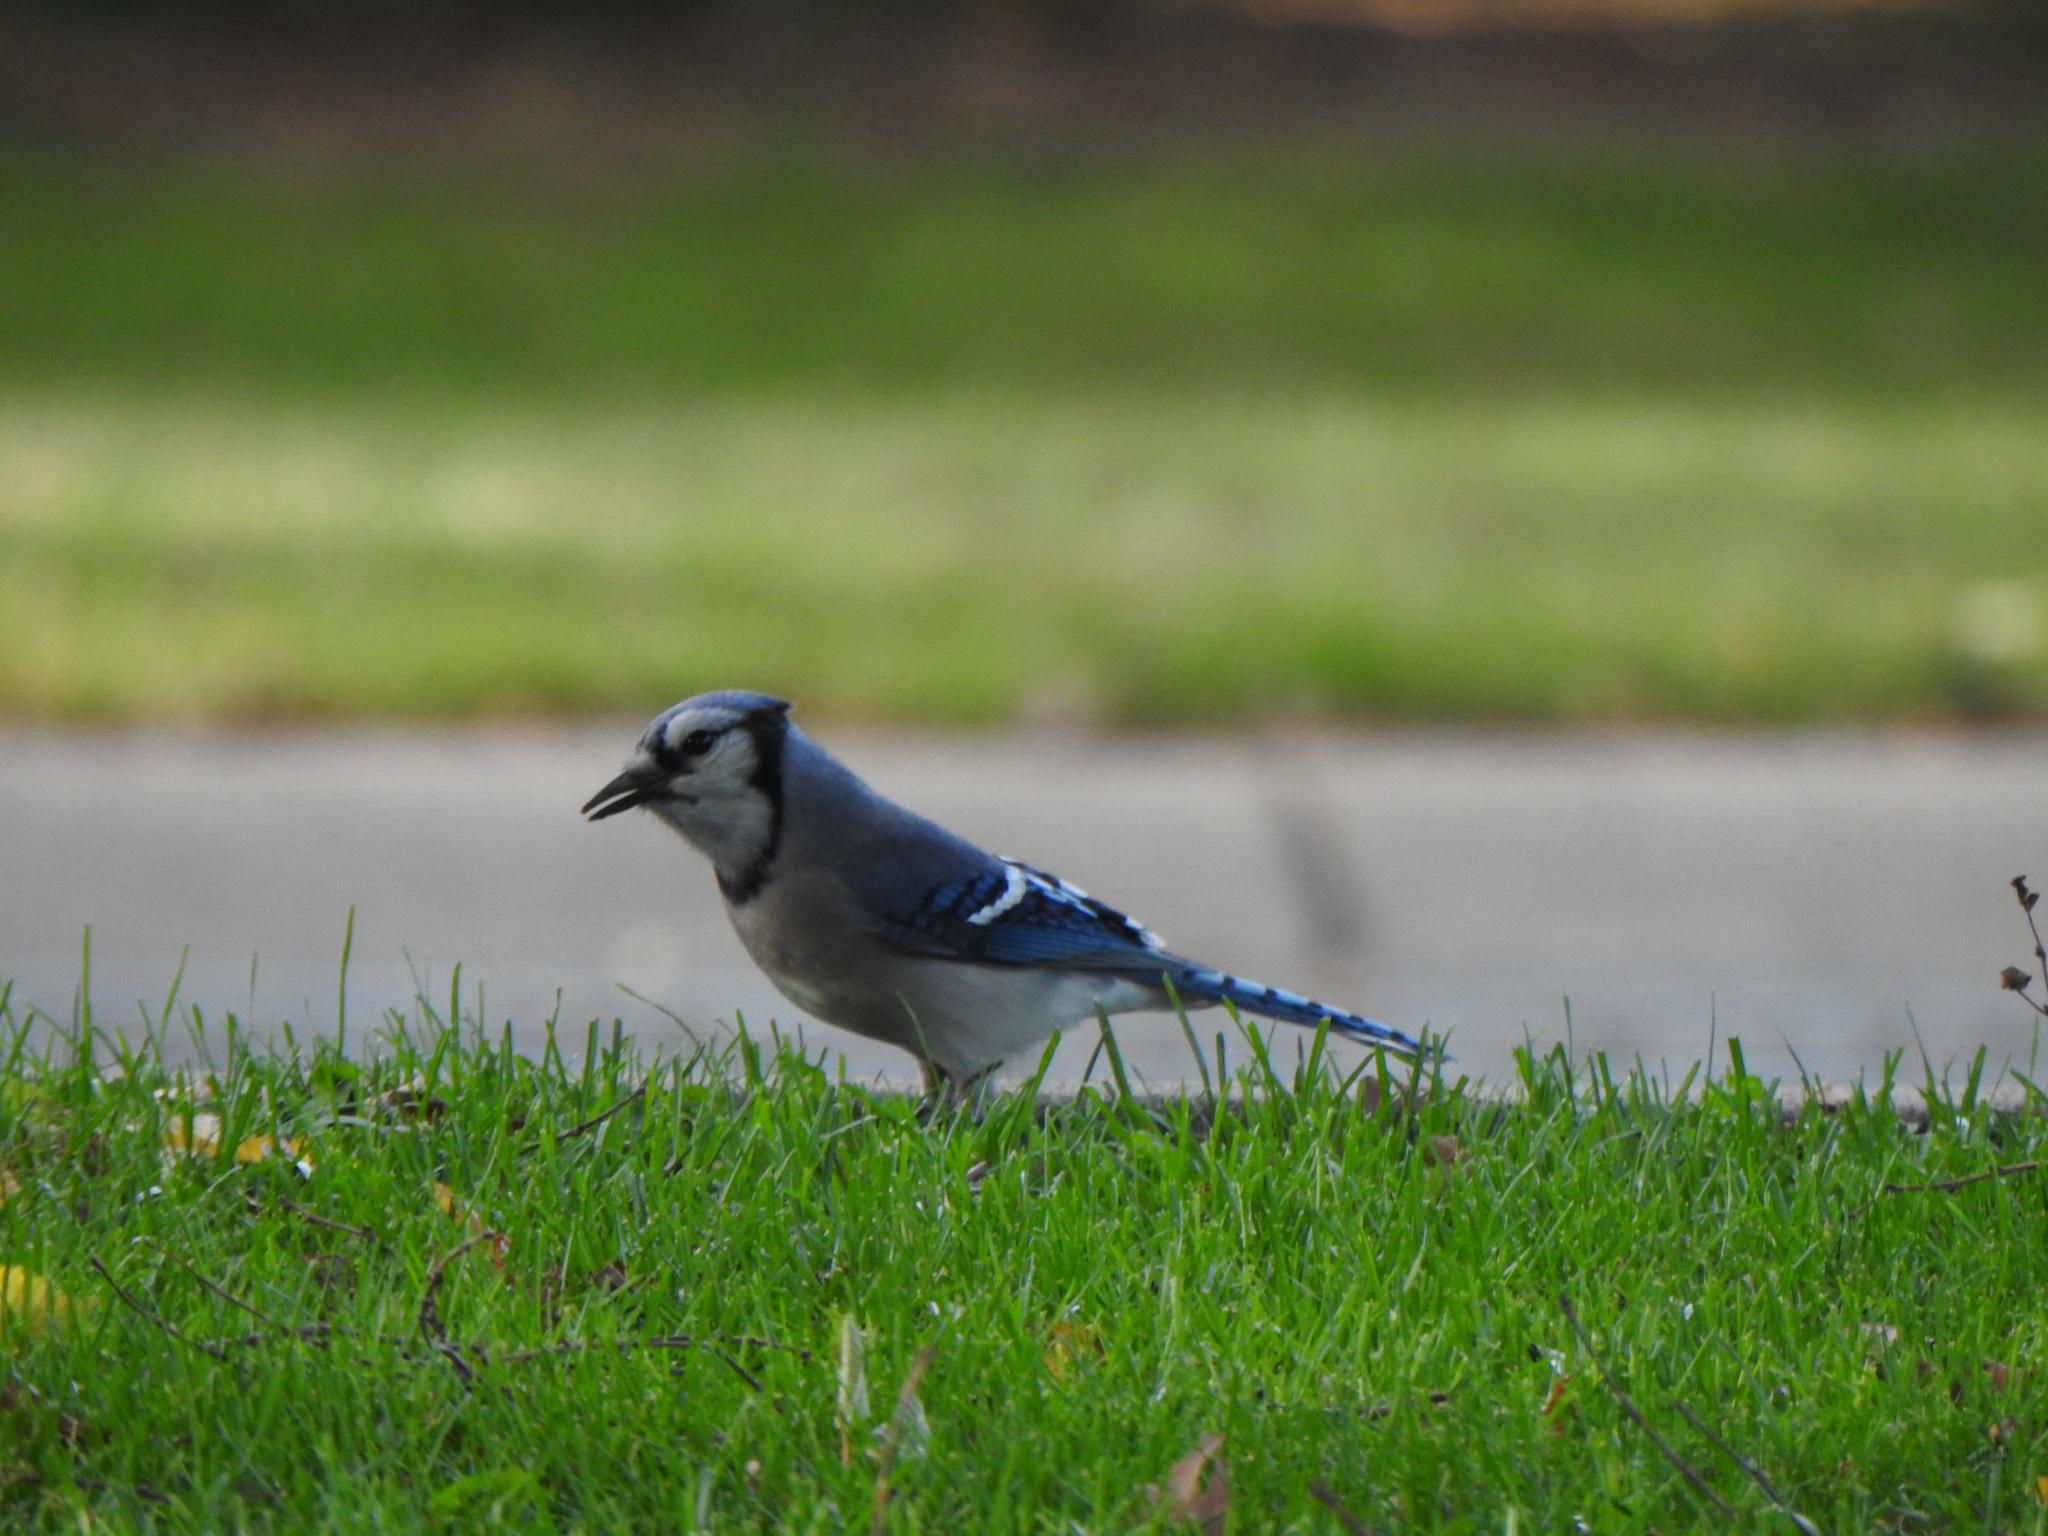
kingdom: Animalia
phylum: Chordata
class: Aves
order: Passeriformes
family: Corvidae
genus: Cyanocitta
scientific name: Cyanocitta cristata
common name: Blue jay
